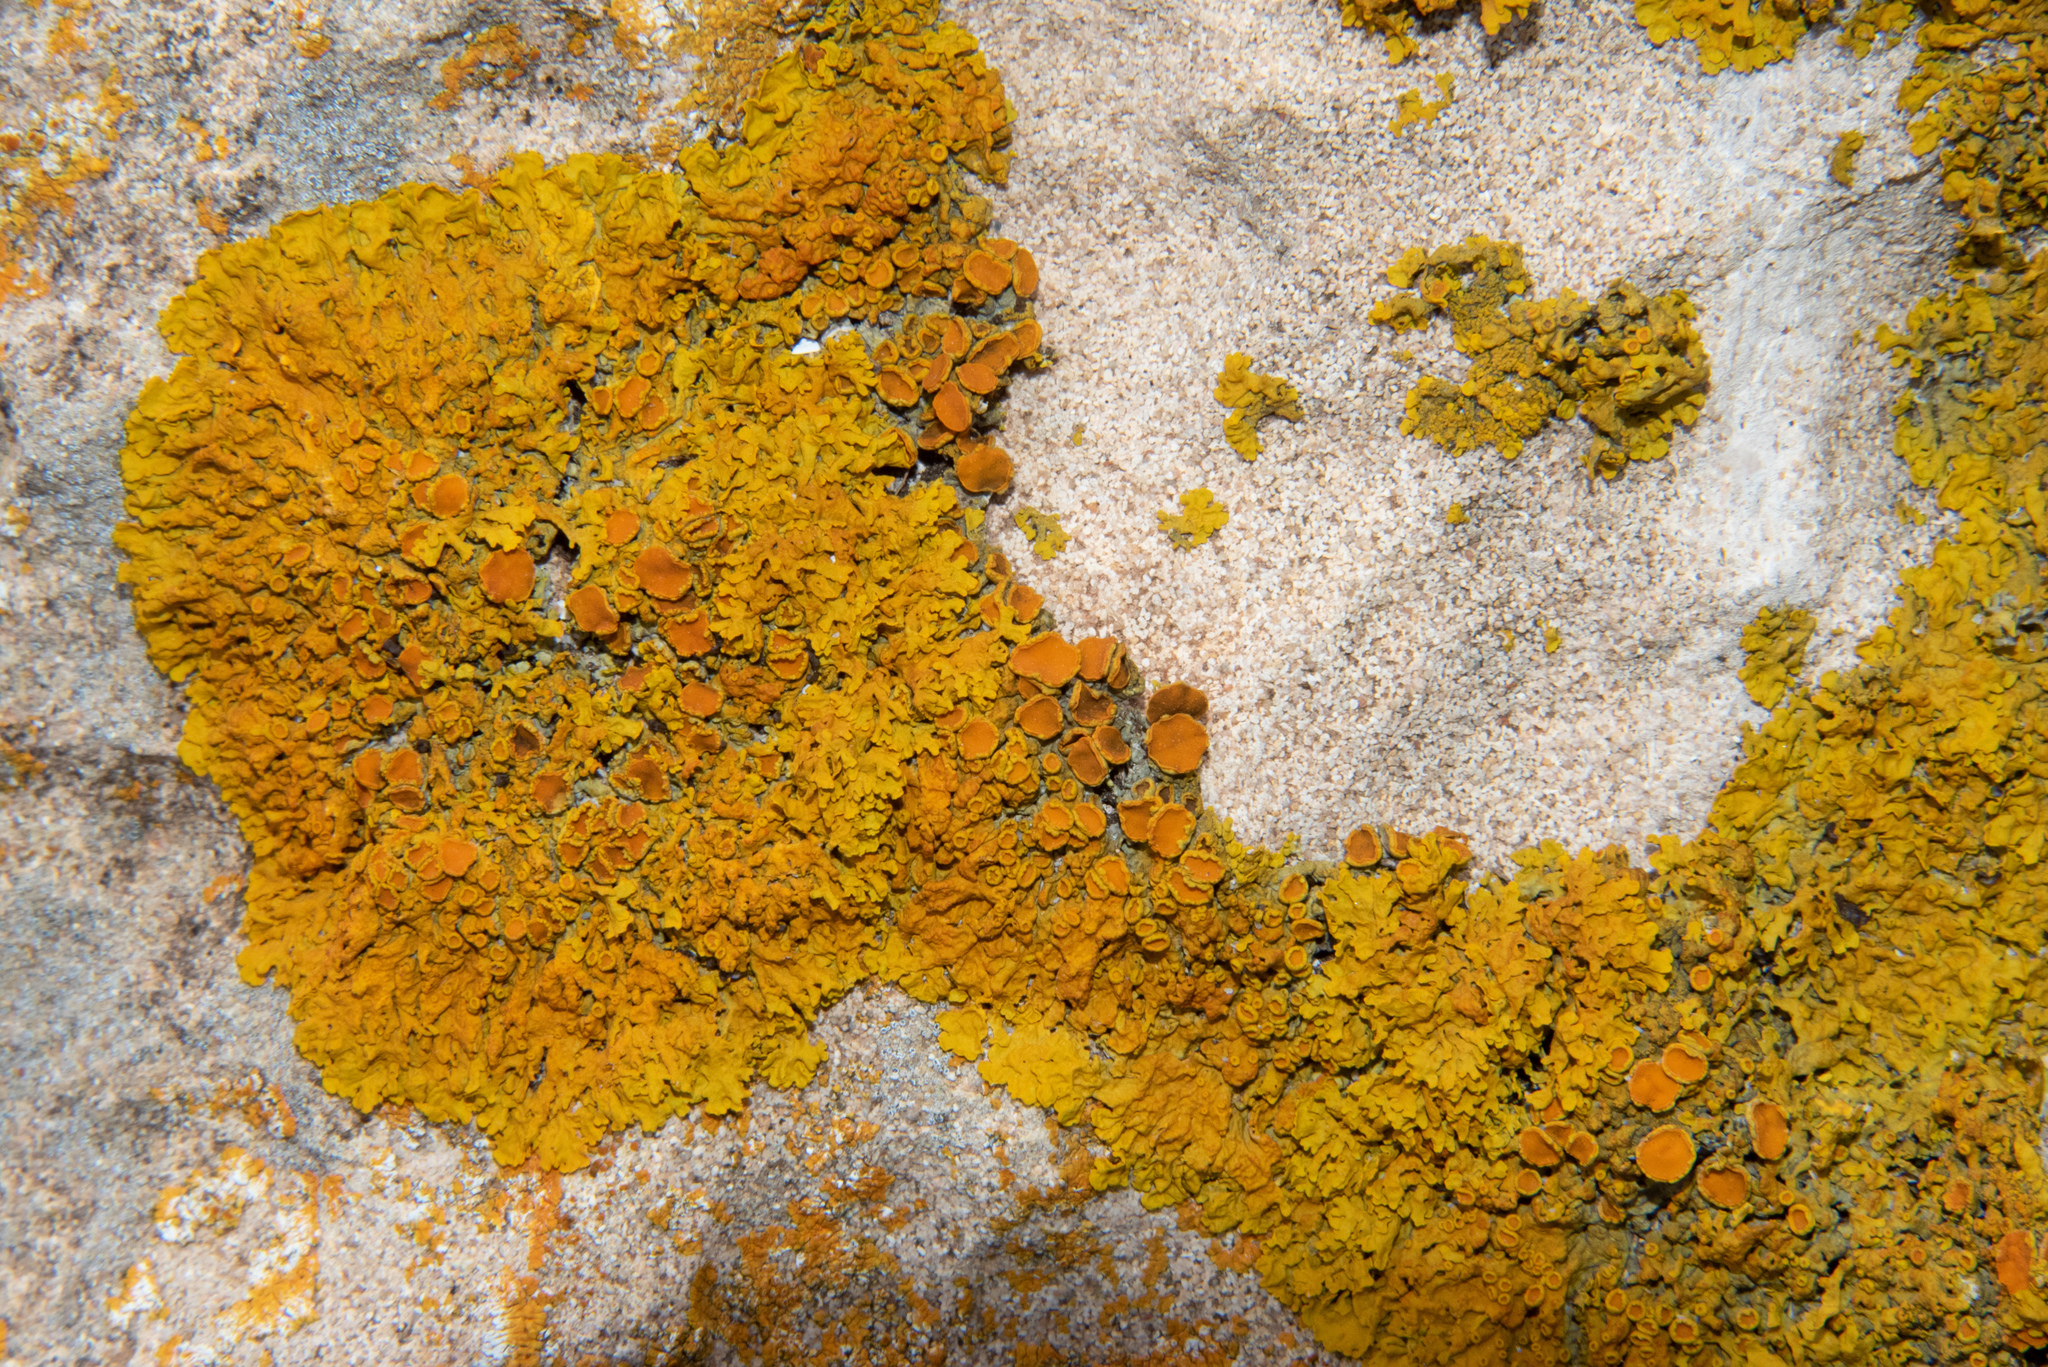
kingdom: Fungi
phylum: Ascomycota
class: Lecanoromycetes
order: Teloschistales
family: Teloschistaceae
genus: Xanthoria
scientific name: Xanthoria parietina
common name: Common orange lichen
